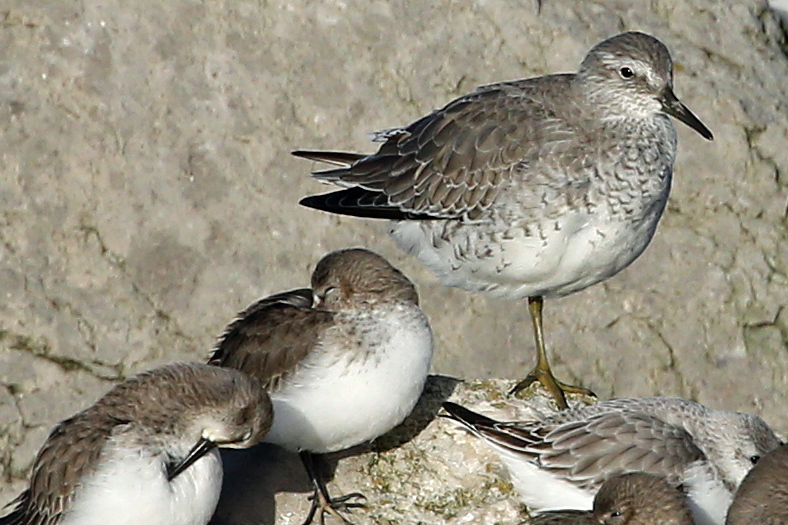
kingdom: Animalia
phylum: Chordata
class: Aves
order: Charadriiformes
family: Scolopacidae
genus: Calidris
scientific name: Calidris canutus
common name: Red knot
